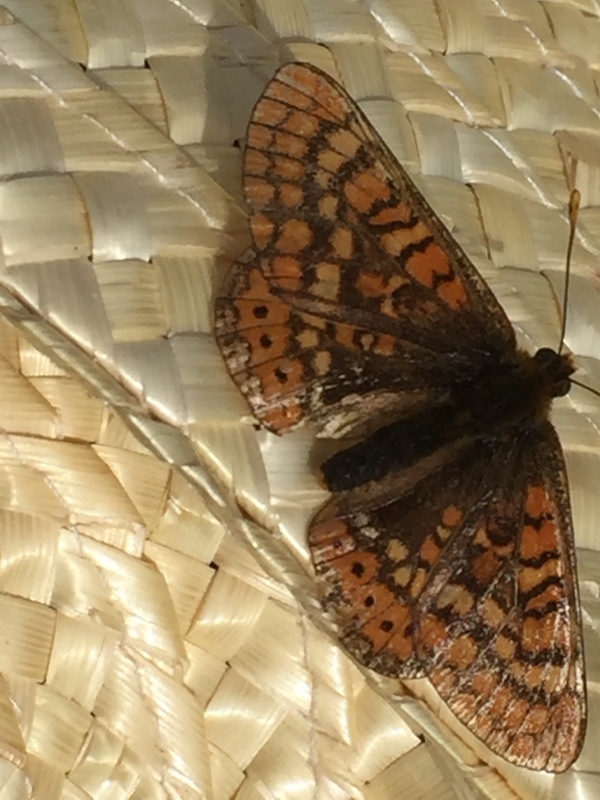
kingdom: Animalia
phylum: Arthropoda
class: Insecta
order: Lepidoptera
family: Nymphalidae
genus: Euphydryas
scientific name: Euphydryas aurinia
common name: Marsh fritillary
